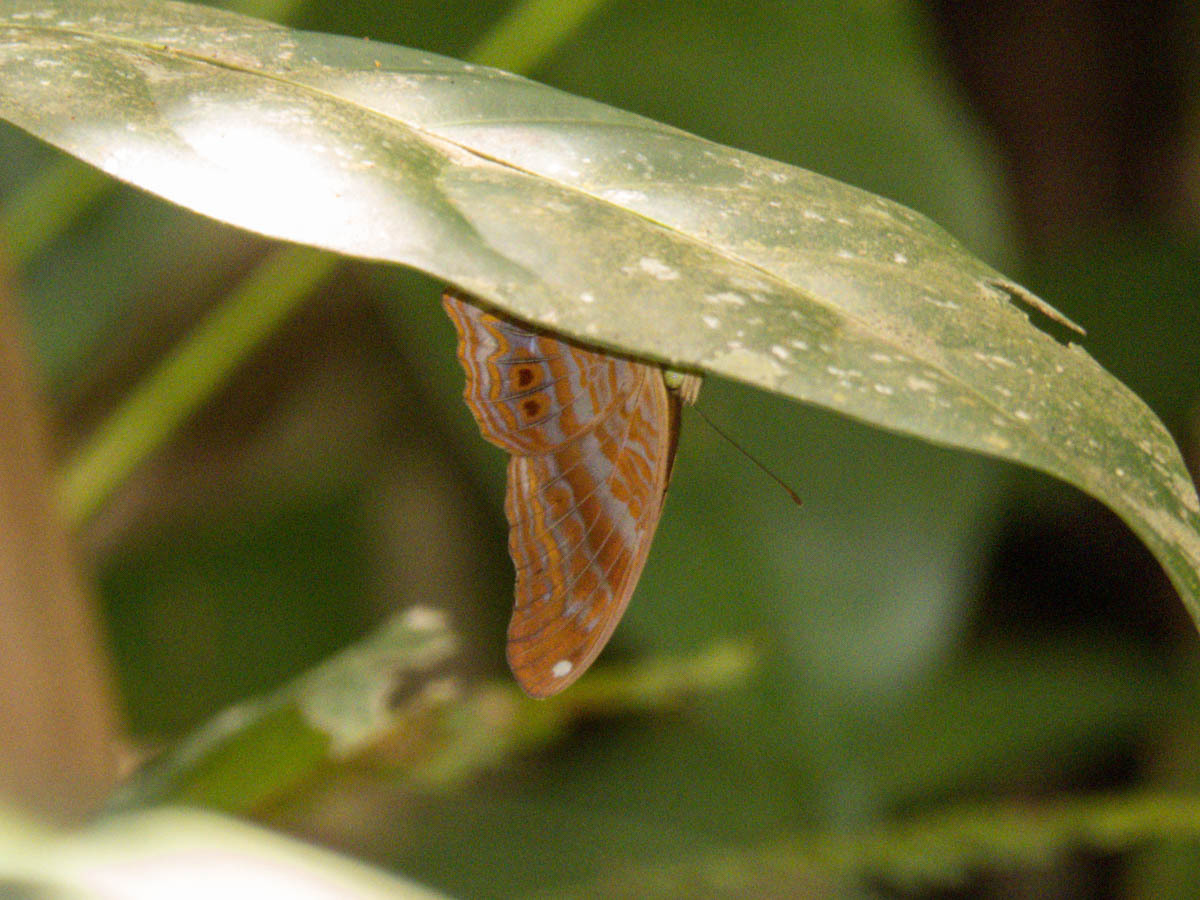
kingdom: Animalia
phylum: Arthropoda
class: Insecta
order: Lepidoptera
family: Nymphalidae
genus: Terinos
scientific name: Terinos terpander
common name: Royal assyrian
